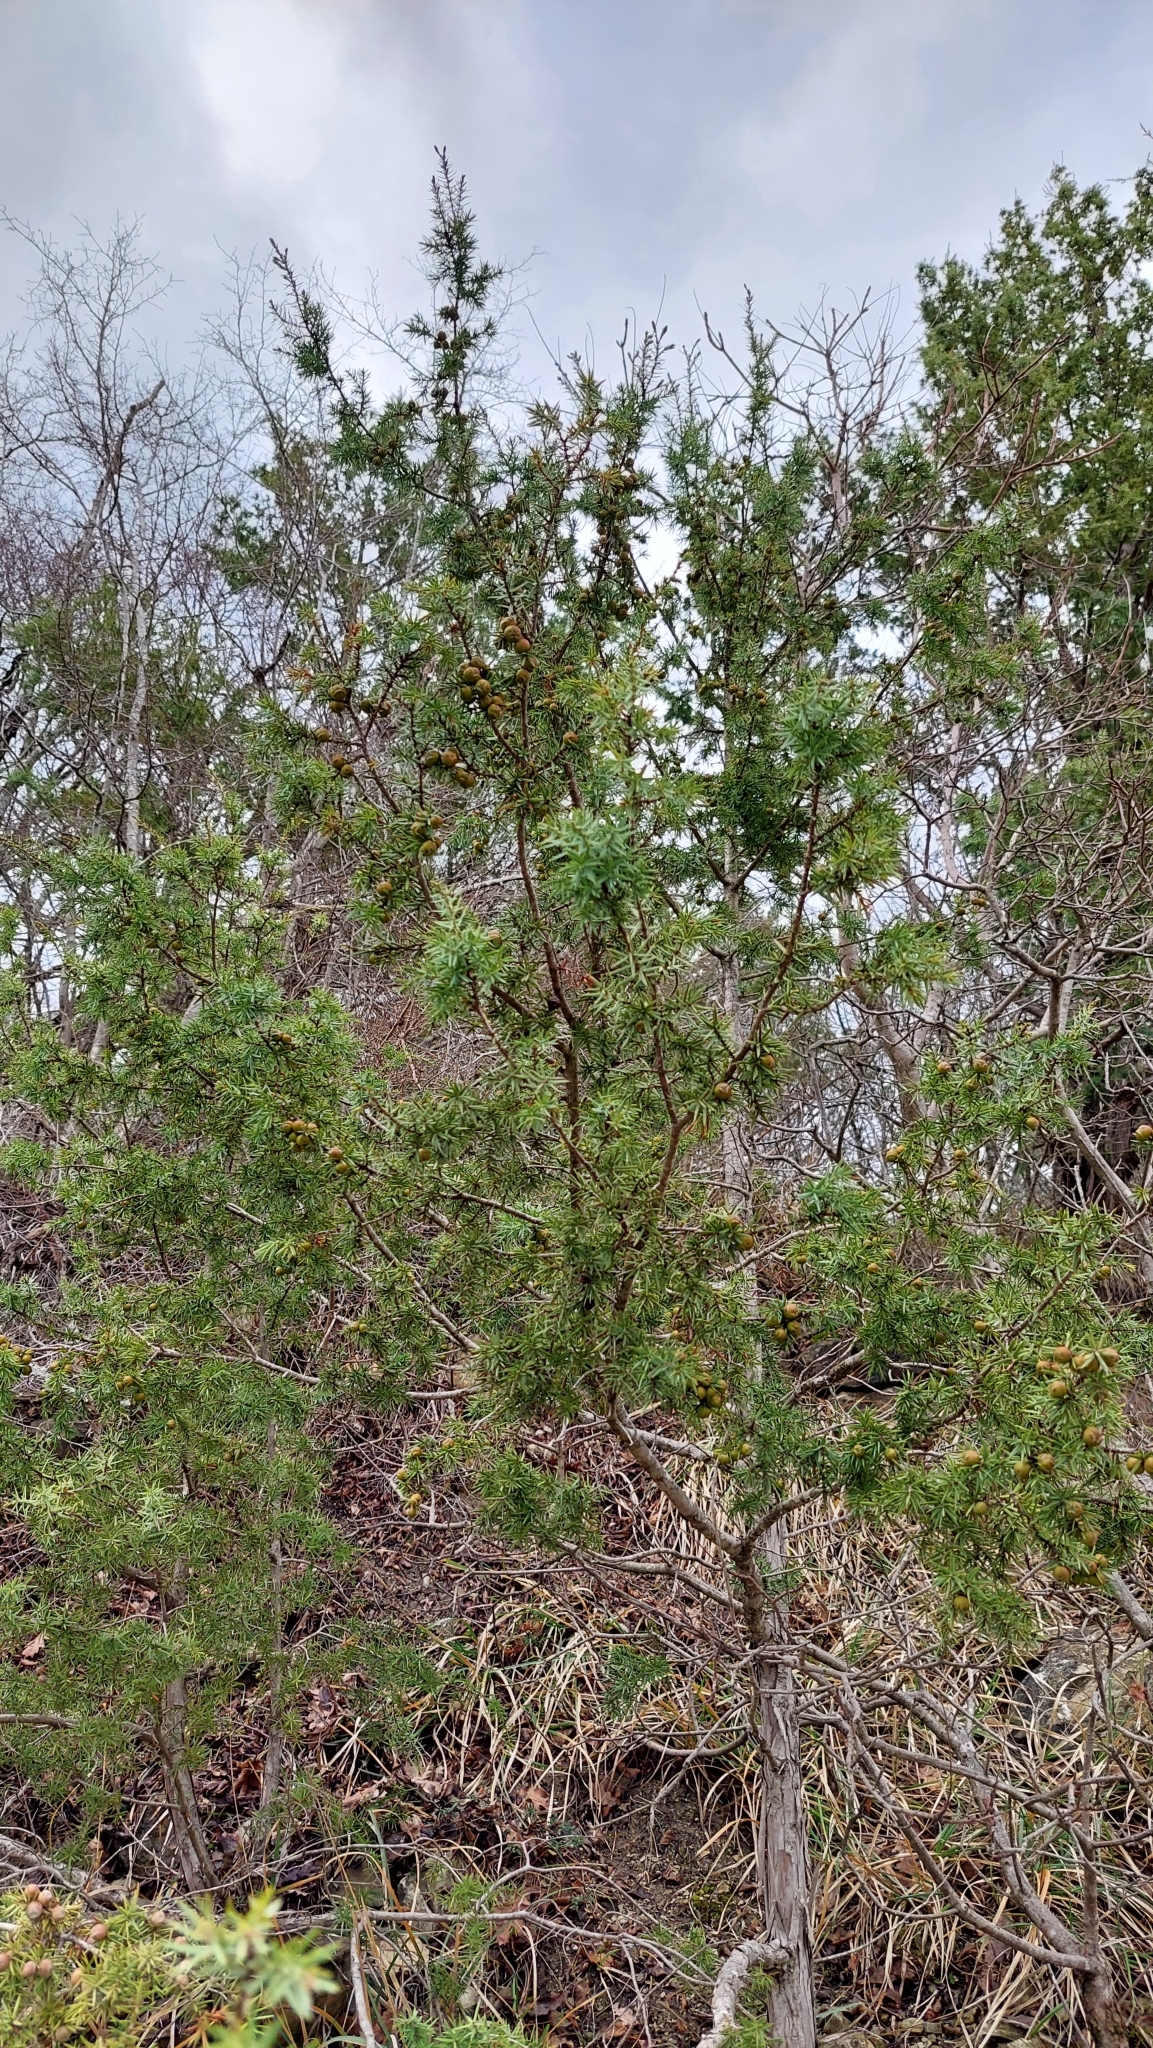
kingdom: Plantae
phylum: Tracheophyta
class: Pinopsida
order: Pinales
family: Cupressaceae
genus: Juniperus
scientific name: Juniperus oxycedrus
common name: Prickly juniper
